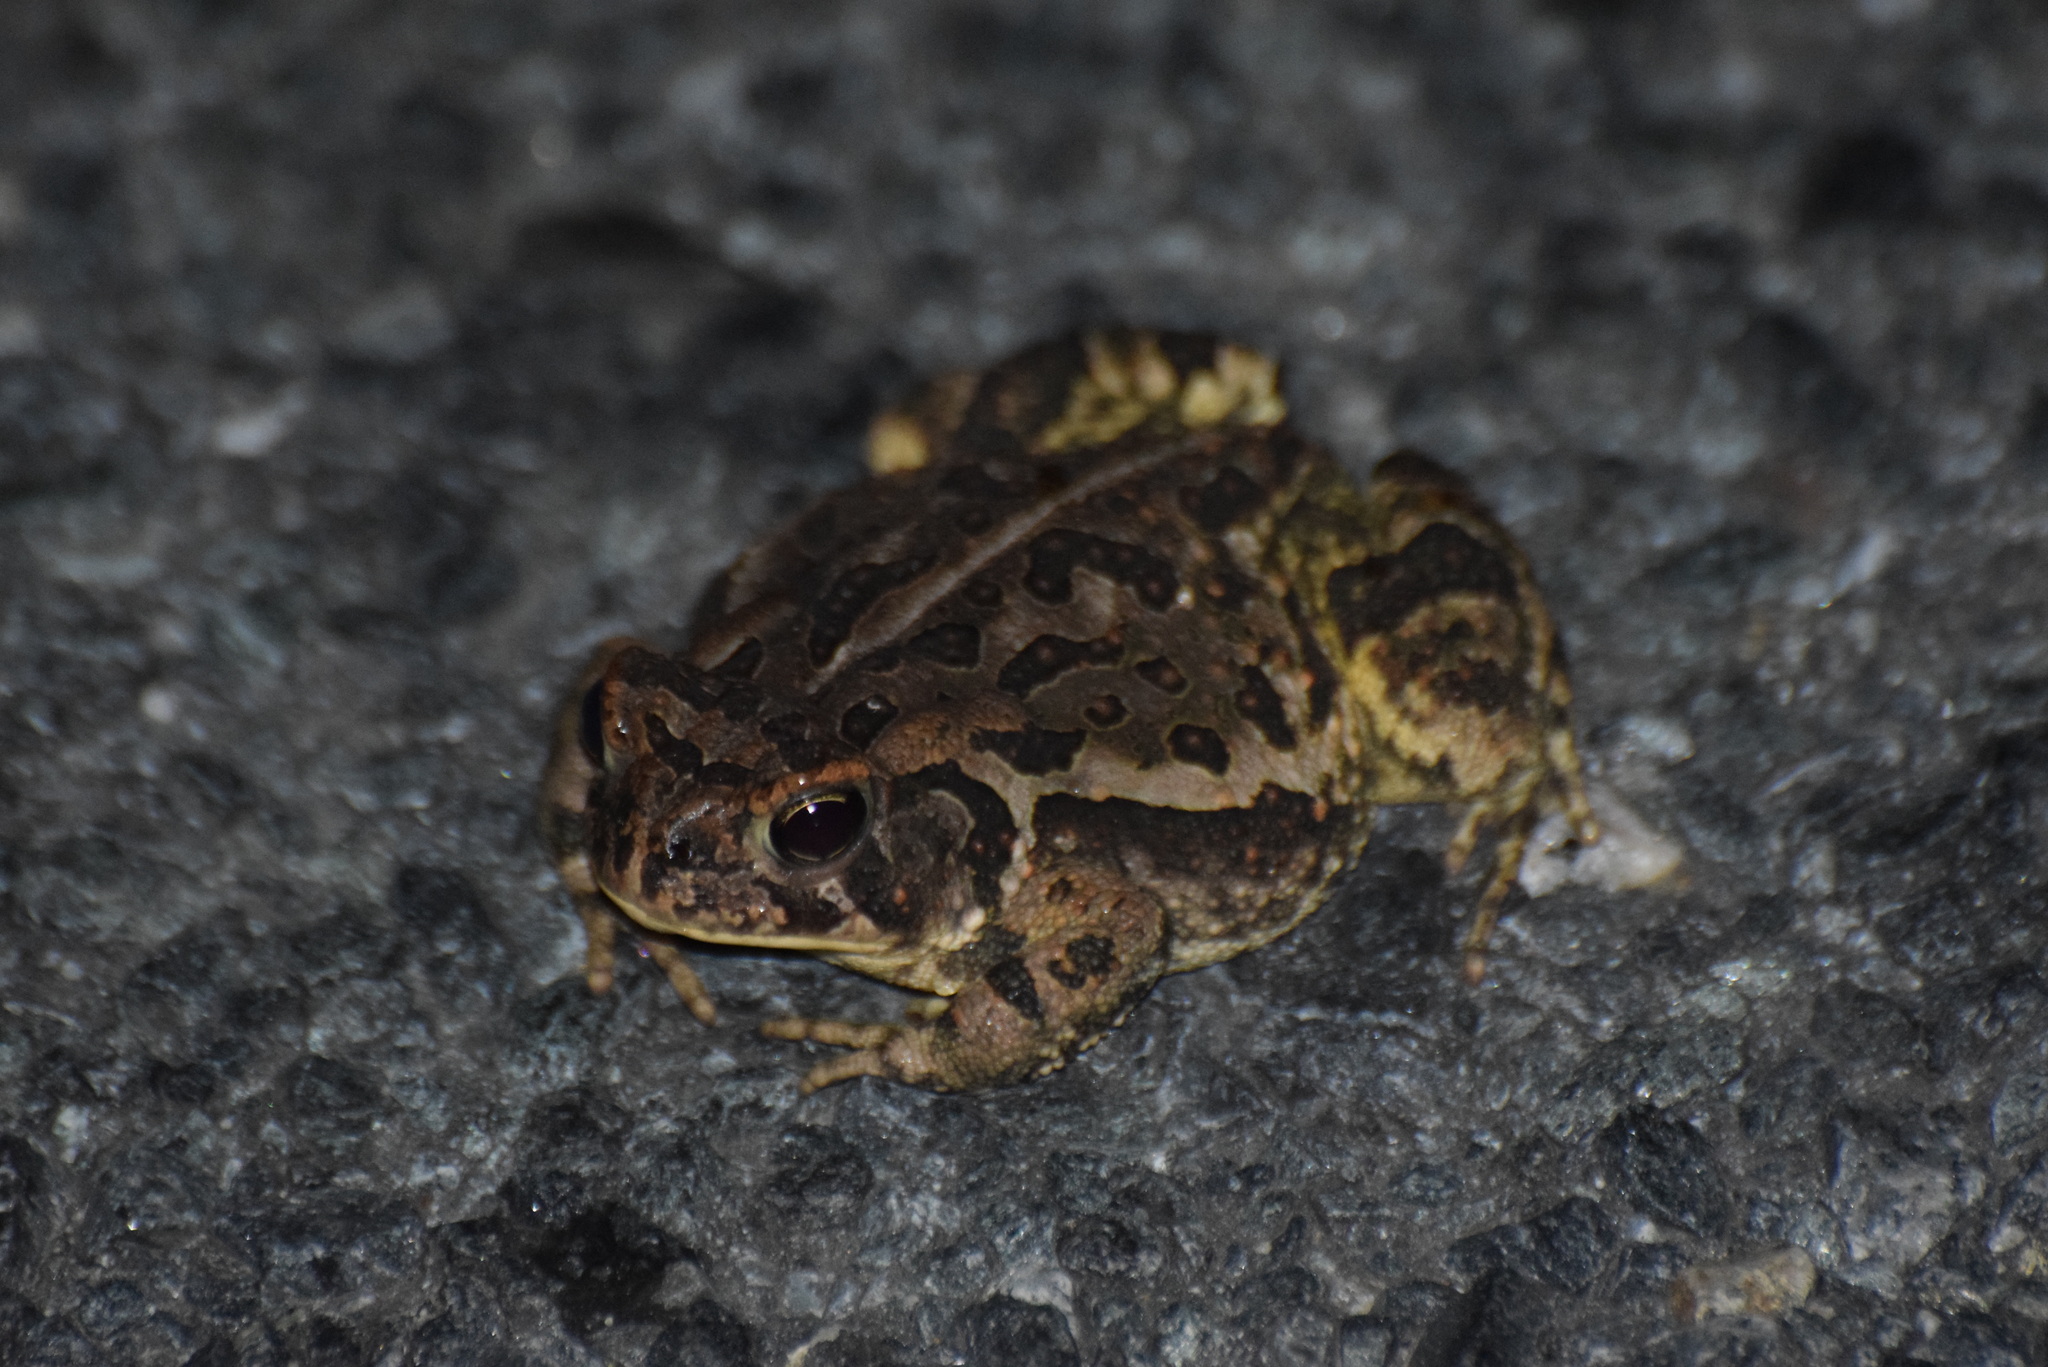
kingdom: Animalia
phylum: Chordata
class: Amphibia
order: Anura
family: Bufonidae
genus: Anaxyrus
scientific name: Anaxyrus fowleri
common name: Fowler's toad
